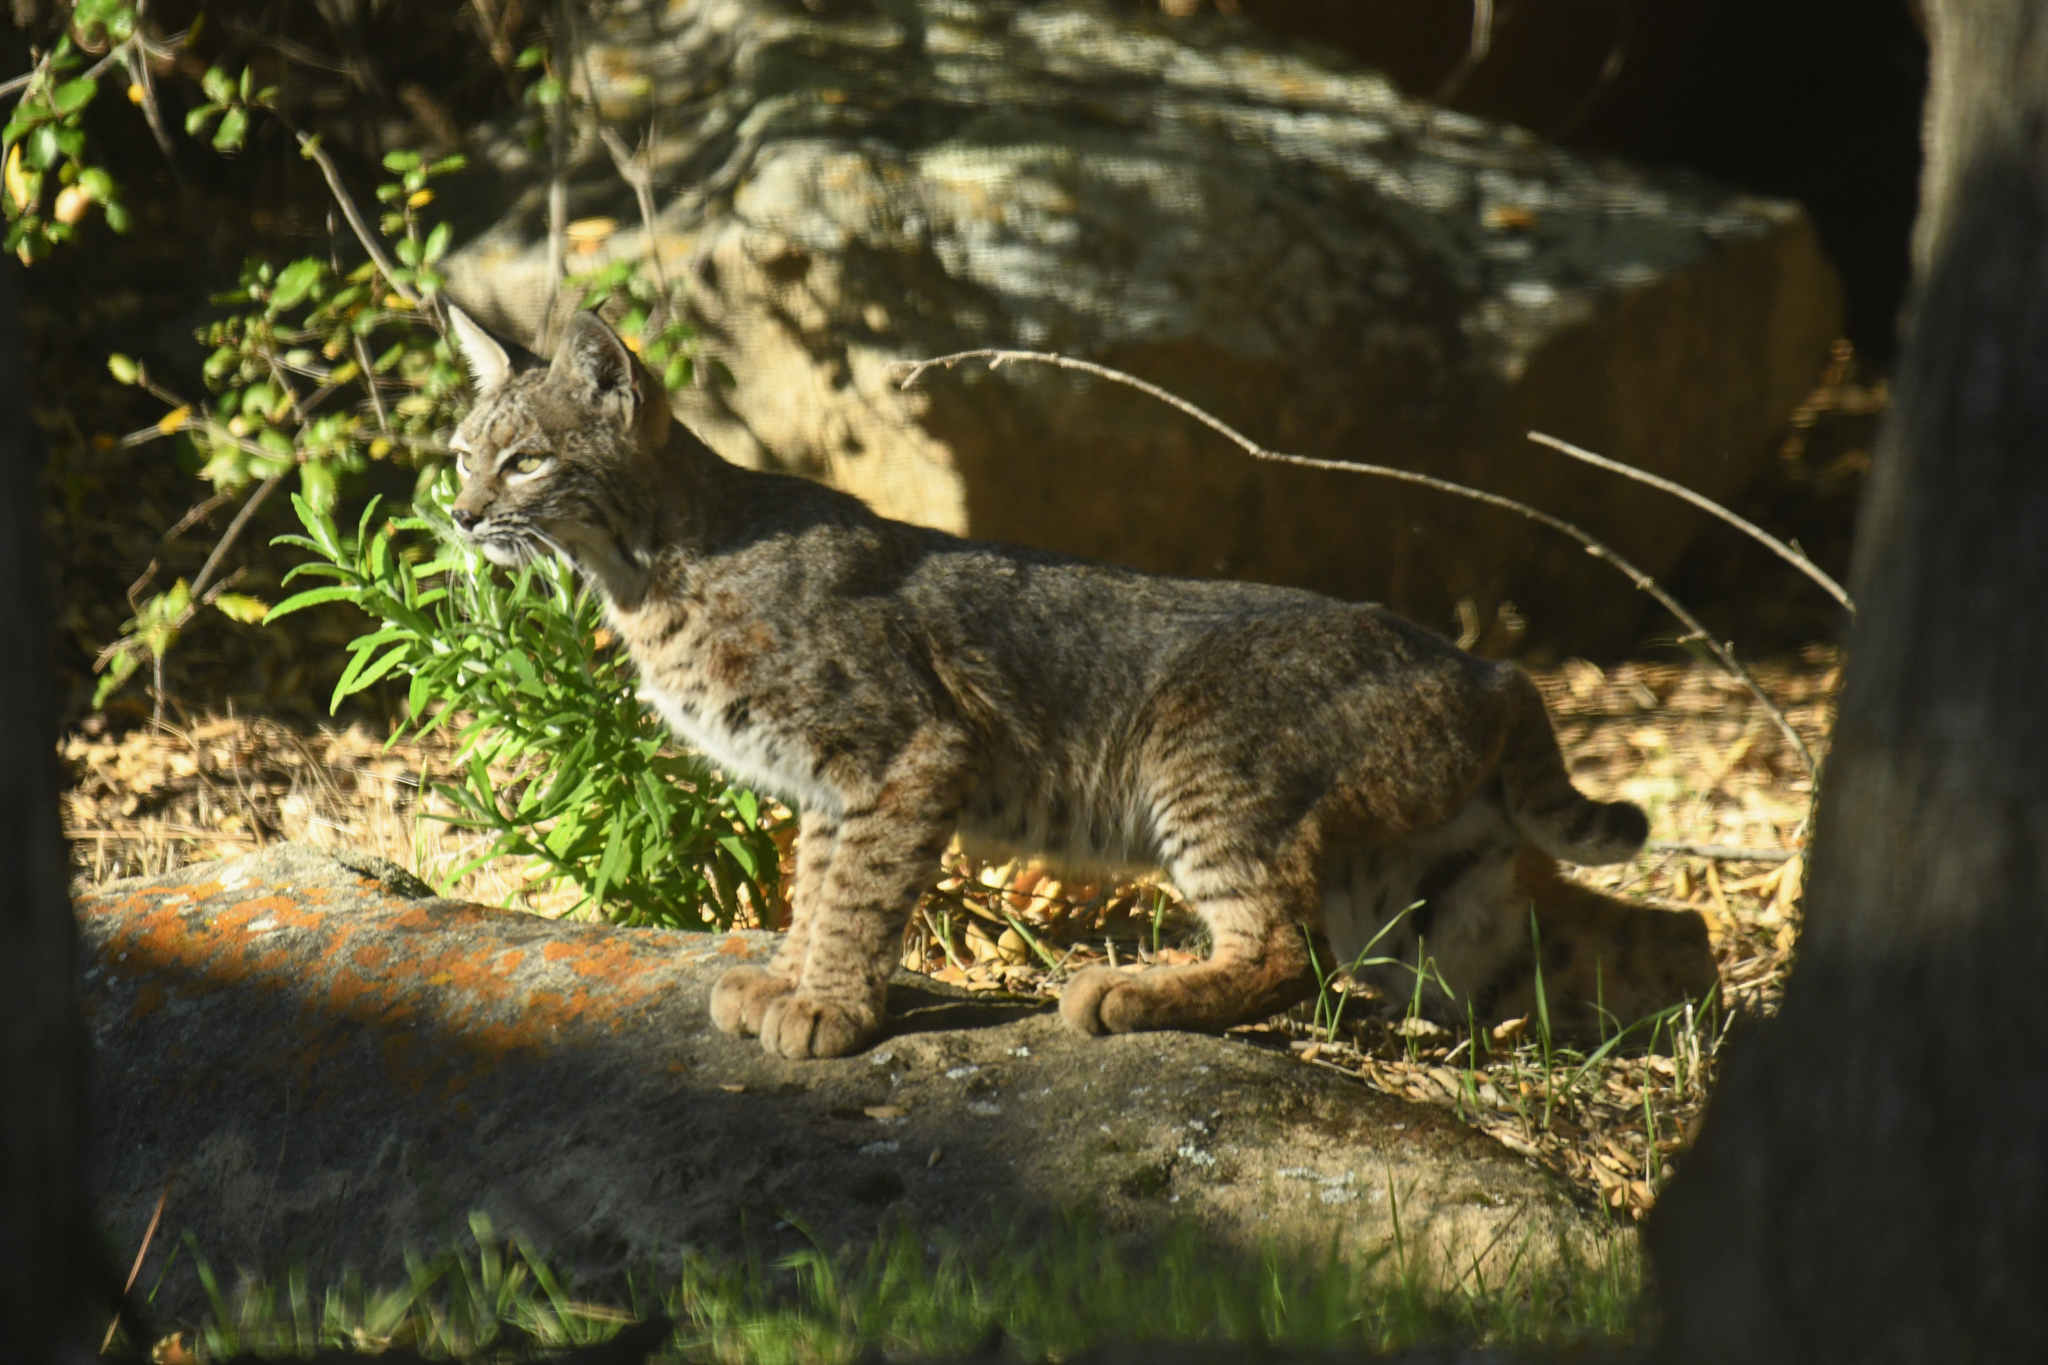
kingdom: Animalia
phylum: Chordata
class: Mammalia
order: Carnivora
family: Felidae
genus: Lynx
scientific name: Lynx rufus
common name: Bobcat
